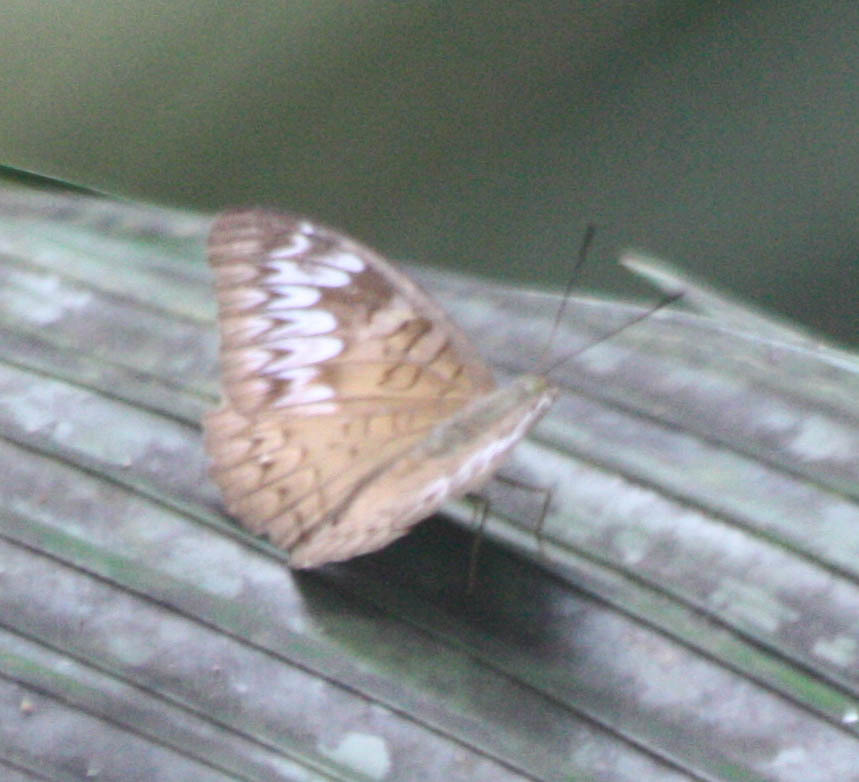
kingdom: Animalia
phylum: Arthropoda
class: Insecta
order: Lepidoptera
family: Nymphalidae
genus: Tanaecia
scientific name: Tanaecia pelea
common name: Malay viscount
